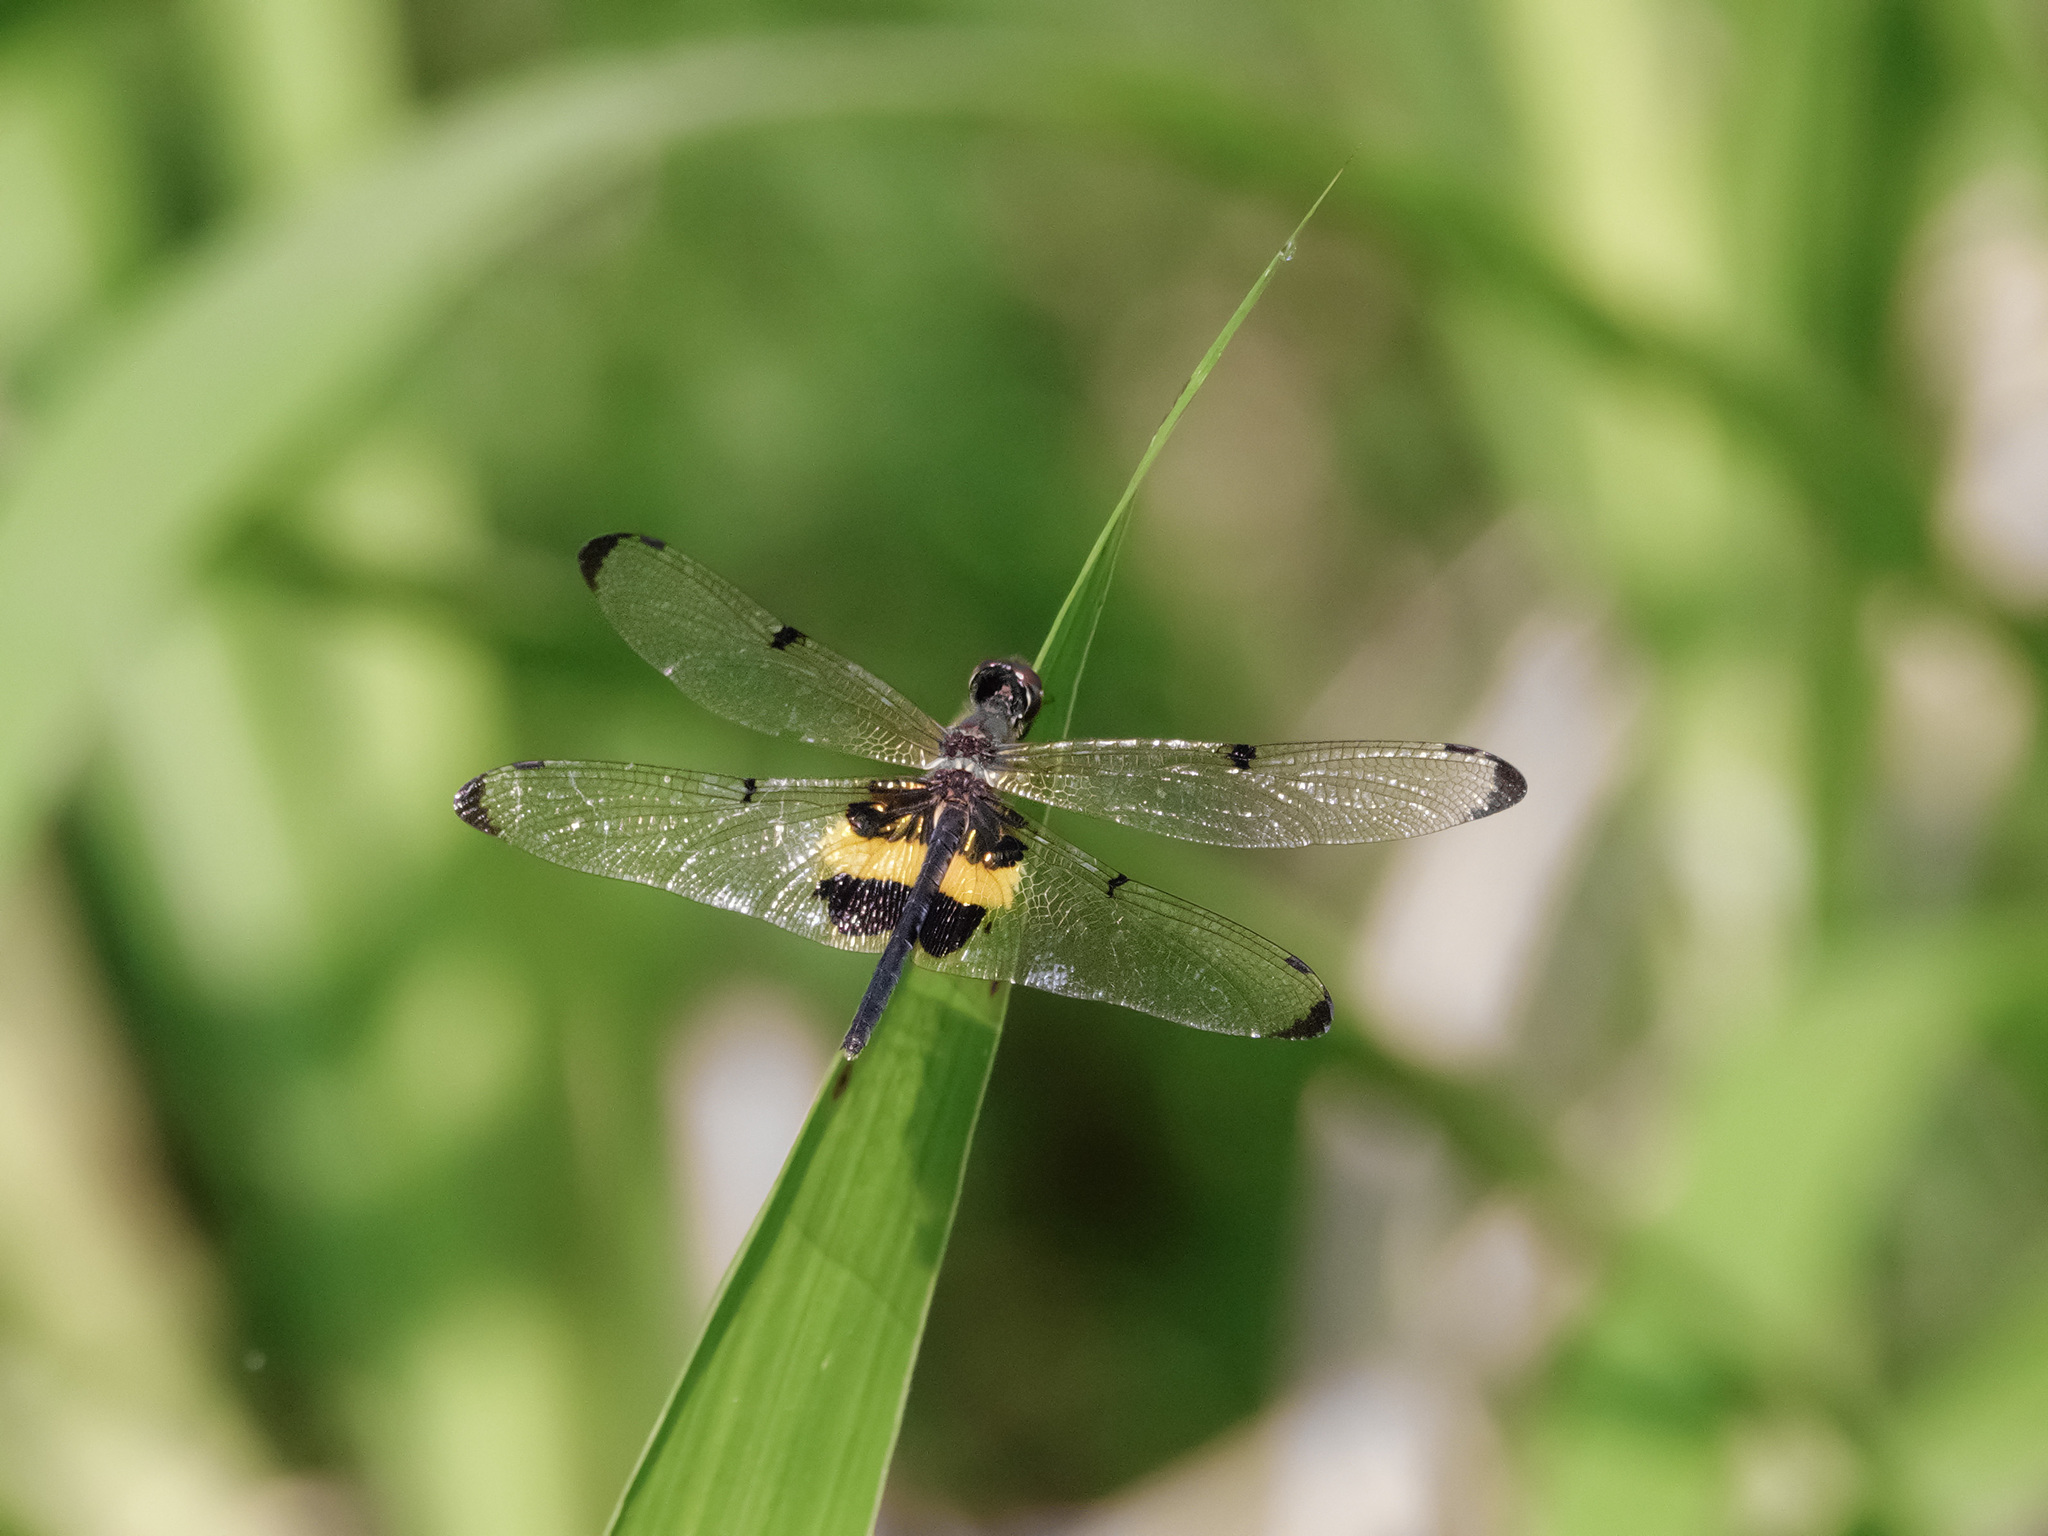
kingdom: Animalia
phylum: Arthropoda
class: Insecta
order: Odonata
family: Libellulidae
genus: Rhyothemis
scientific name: Rhyothemis phyllis
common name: Yellow-barred flutterer
